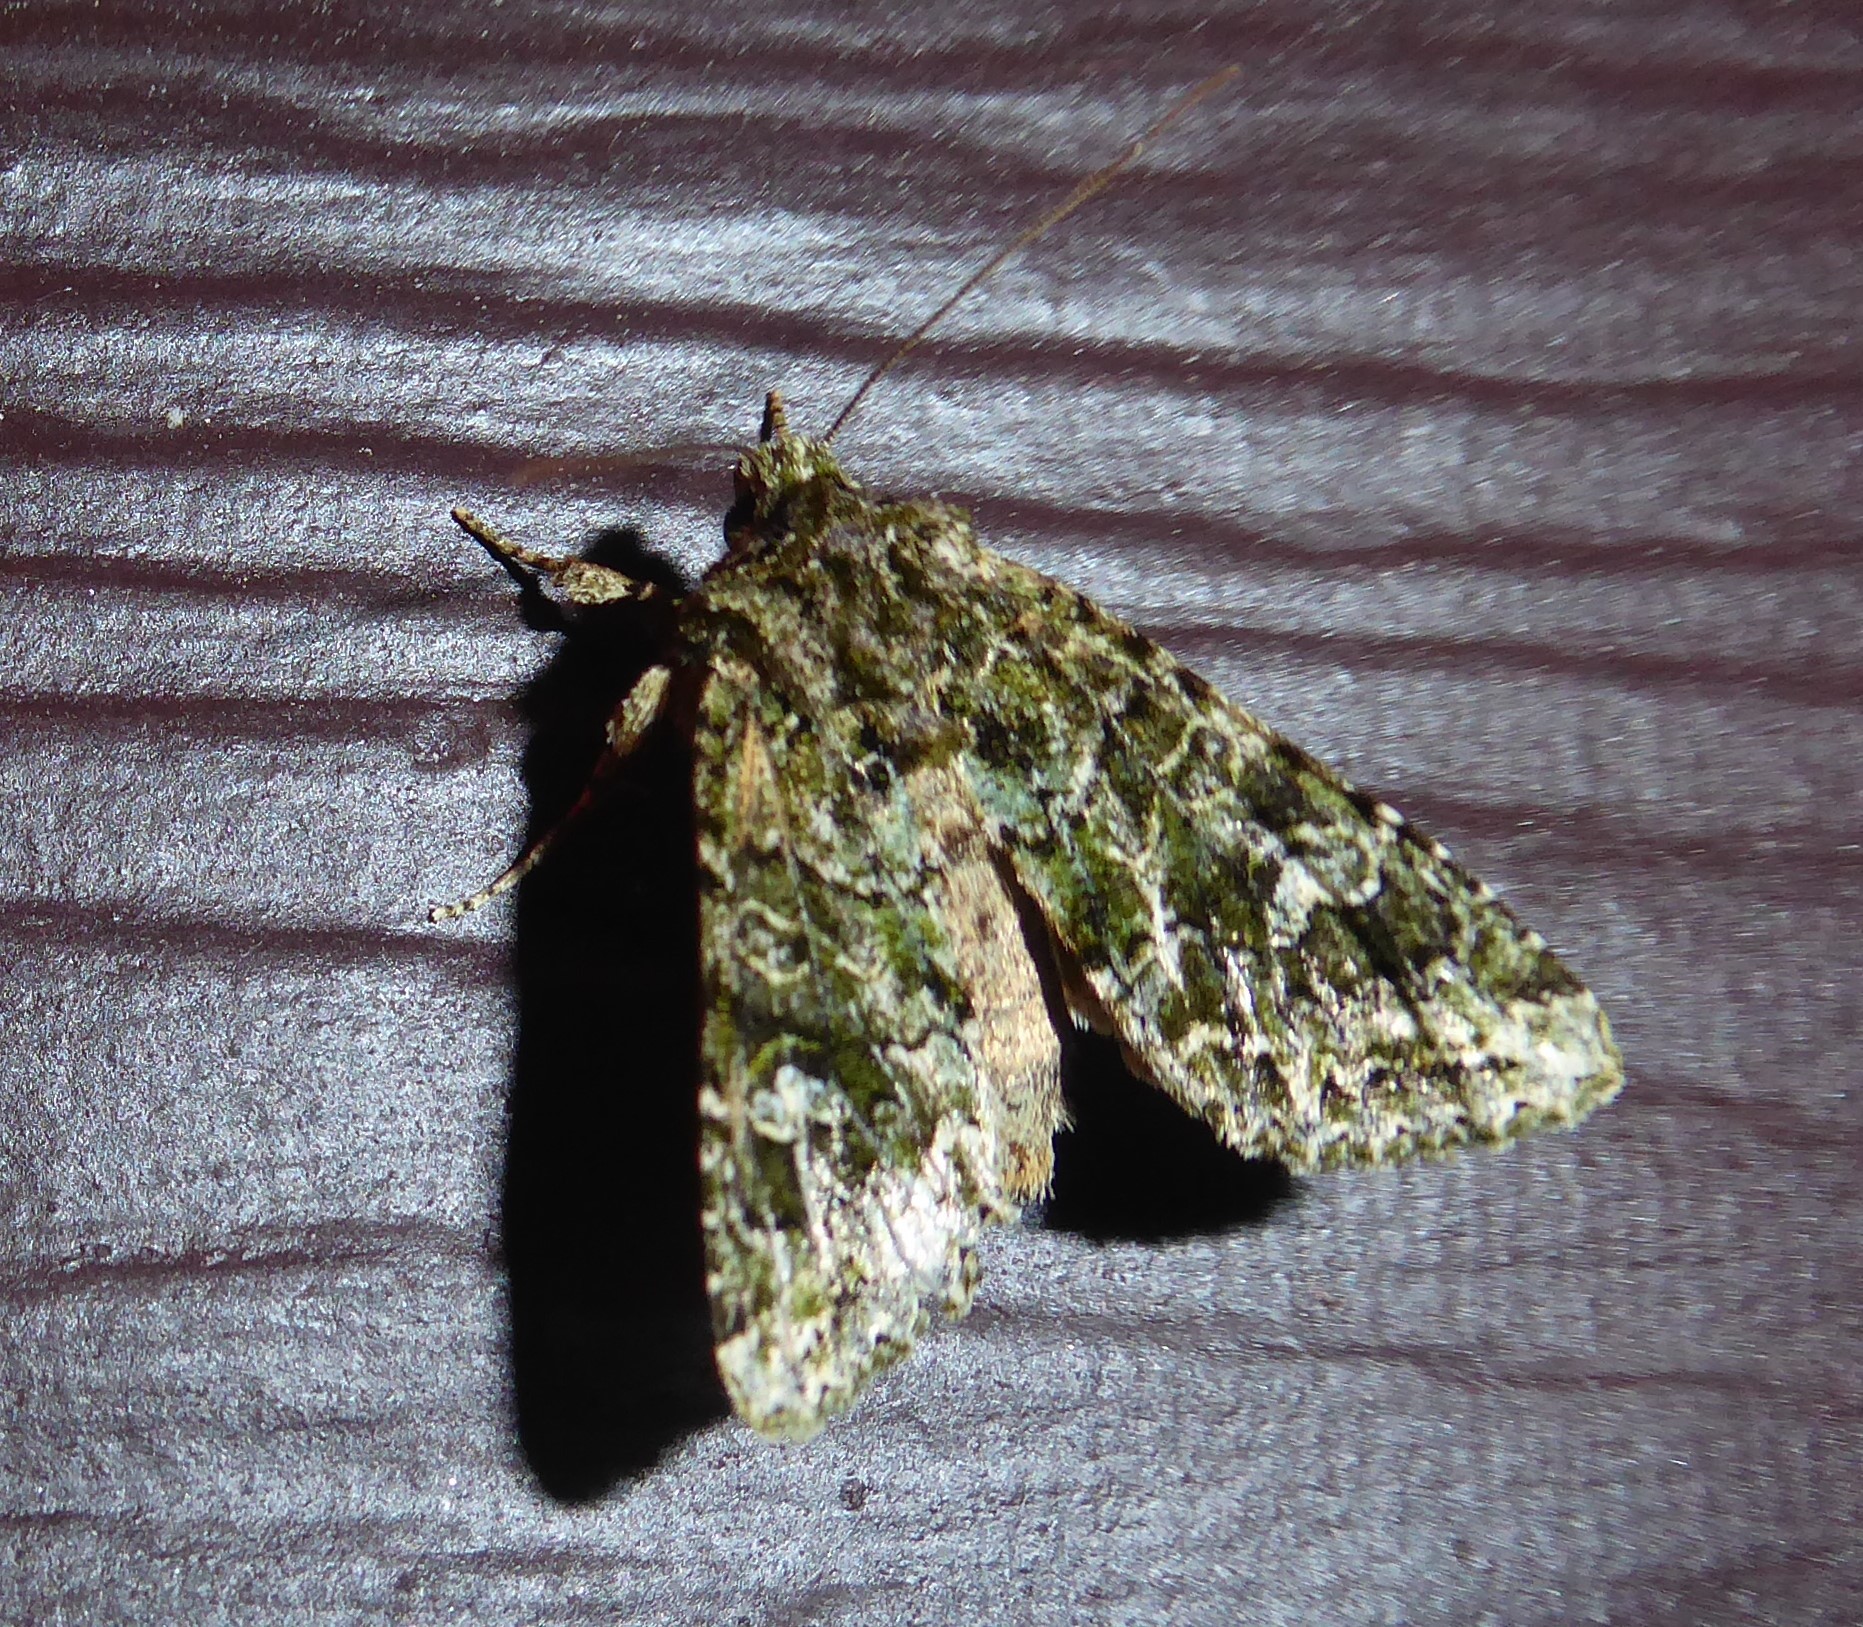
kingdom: Animalia
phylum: Arthropoda
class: Insecta
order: Lepidoptera
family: Noctuidae
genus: Ichneutica
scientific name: Ichneutica
